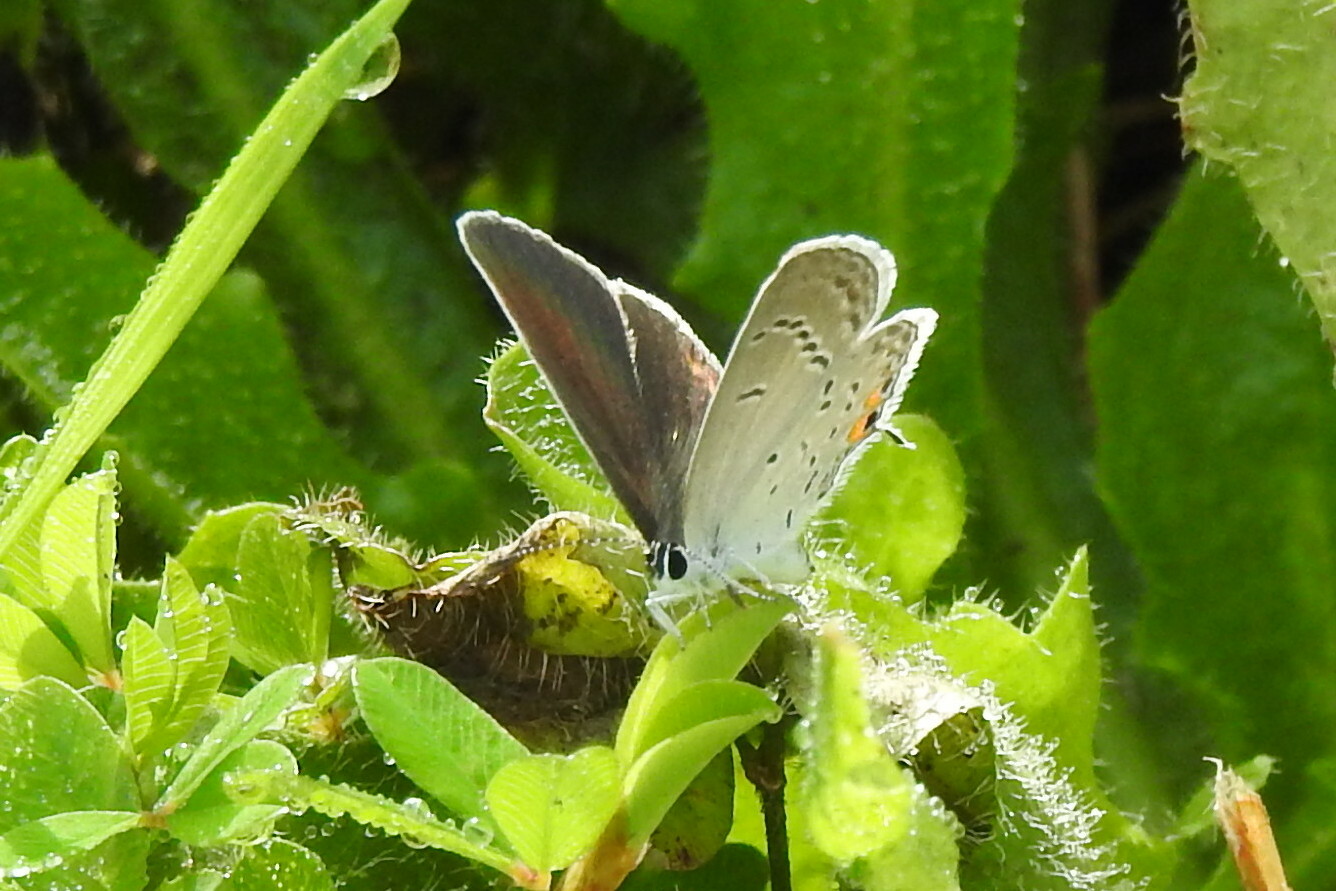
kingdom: Animalia
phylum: Arthropoda
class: Insecta
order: Lepidoptera
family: Lycaenidae
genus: Elkalyce
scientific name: Elkalyce comyntas
